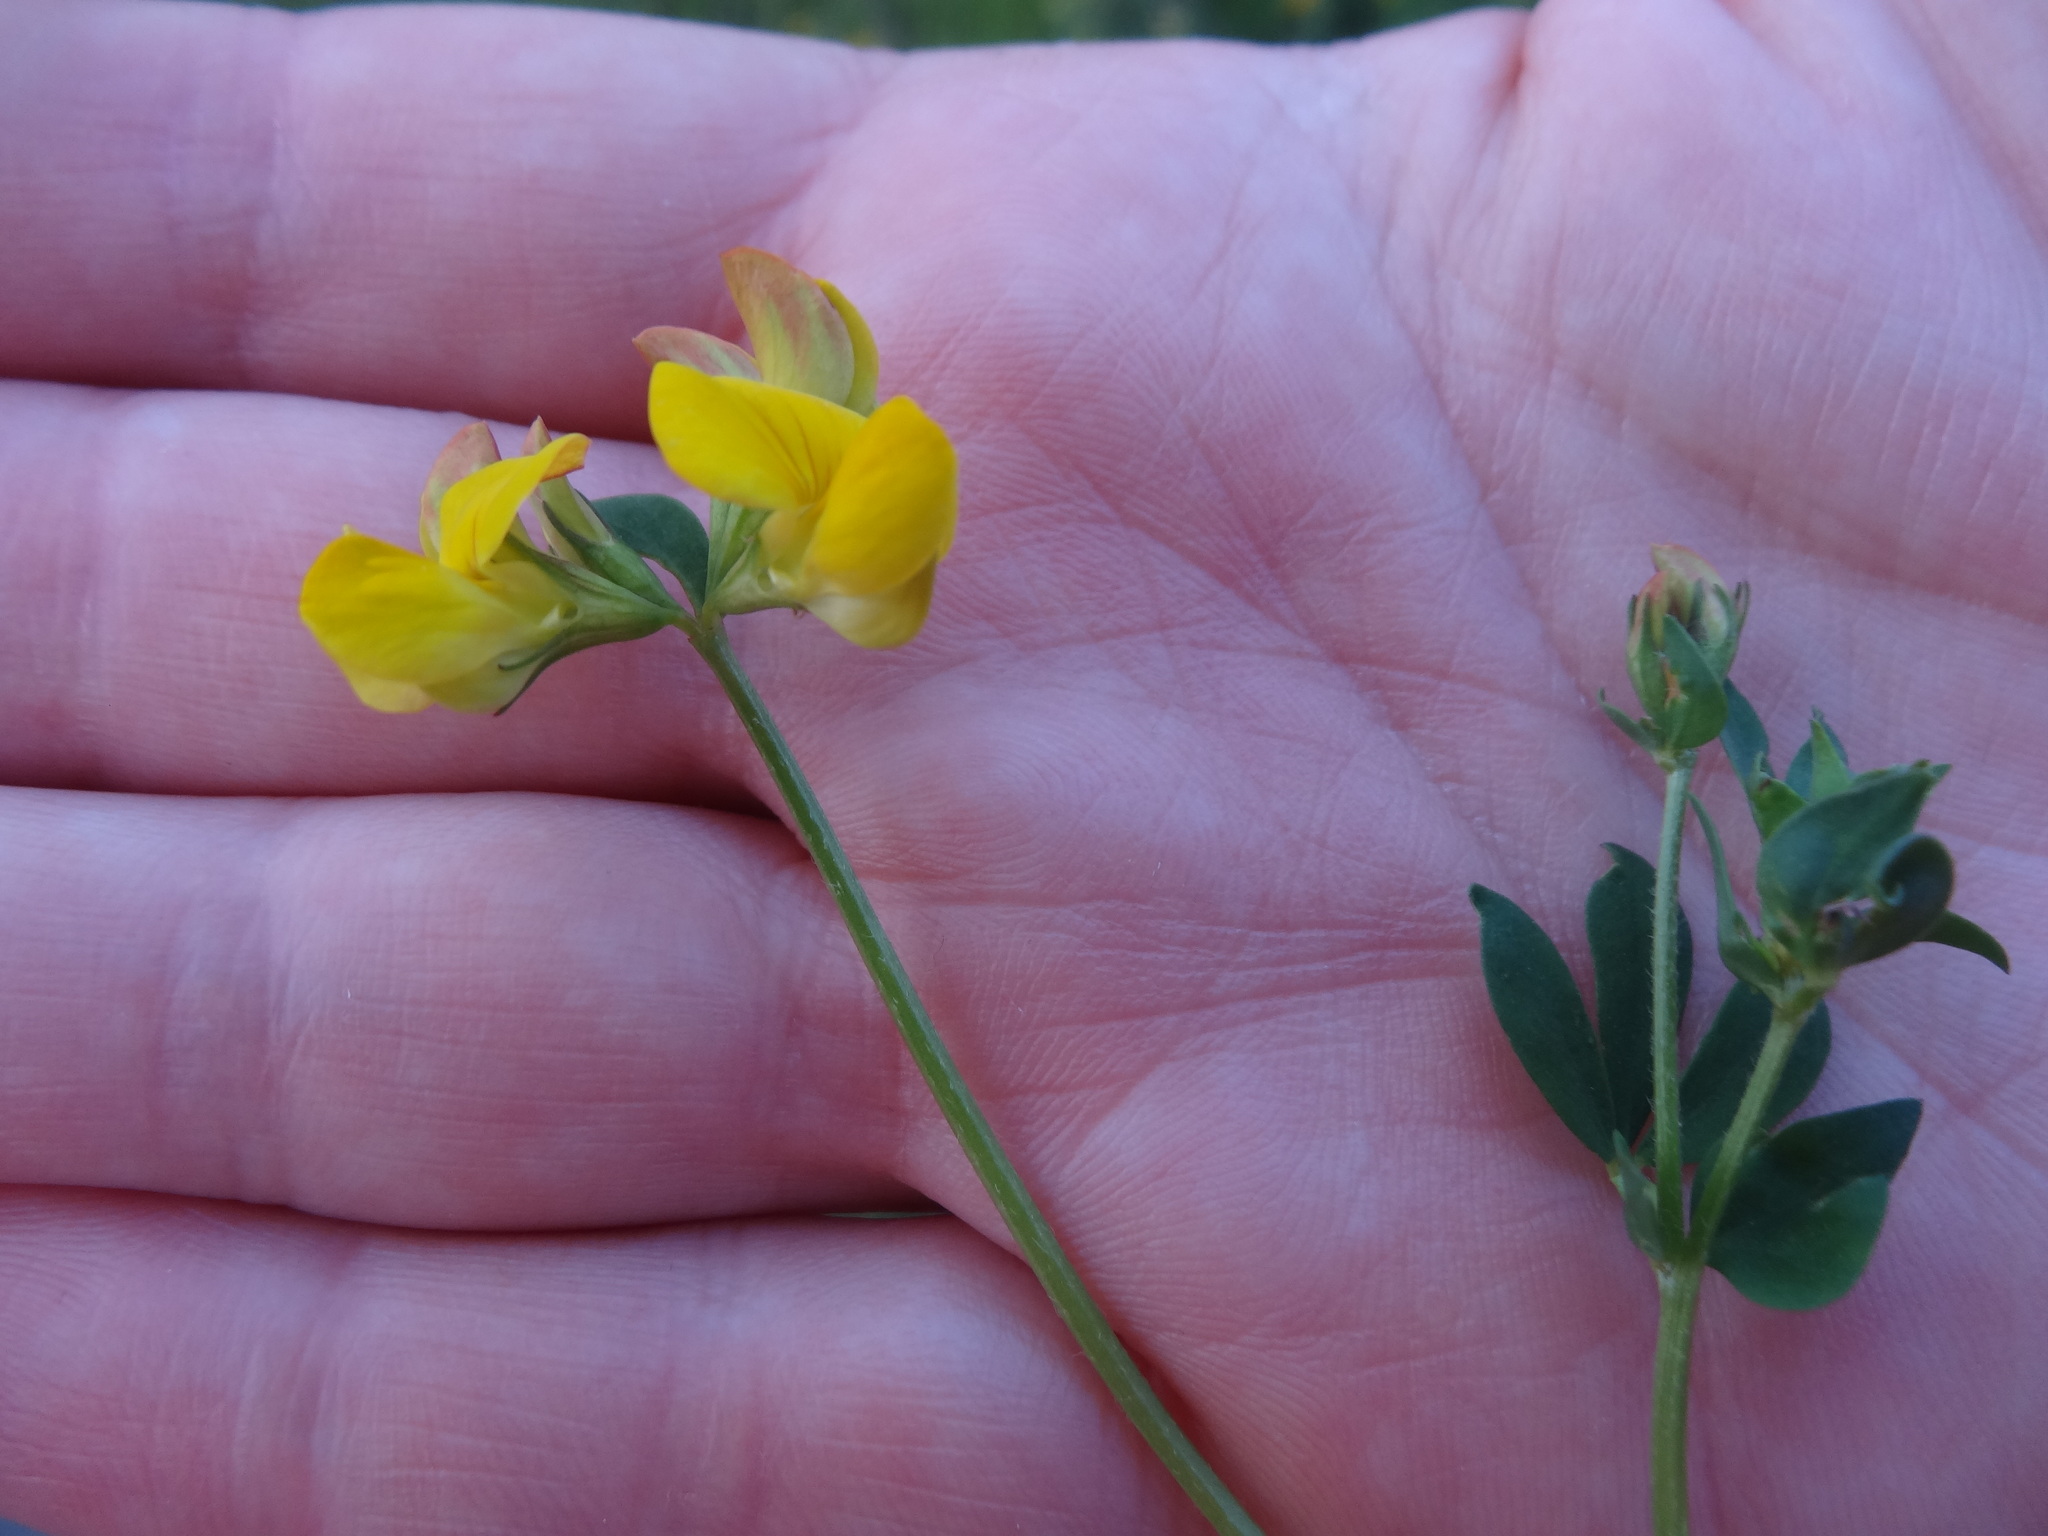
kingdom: Plantae
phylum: Tracheophyta
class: Magnoliopsida
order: Fabales
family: Fabaceae
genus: Lotus
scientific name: Lotus corniculatus
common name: Common bird's-foot-trefoil
